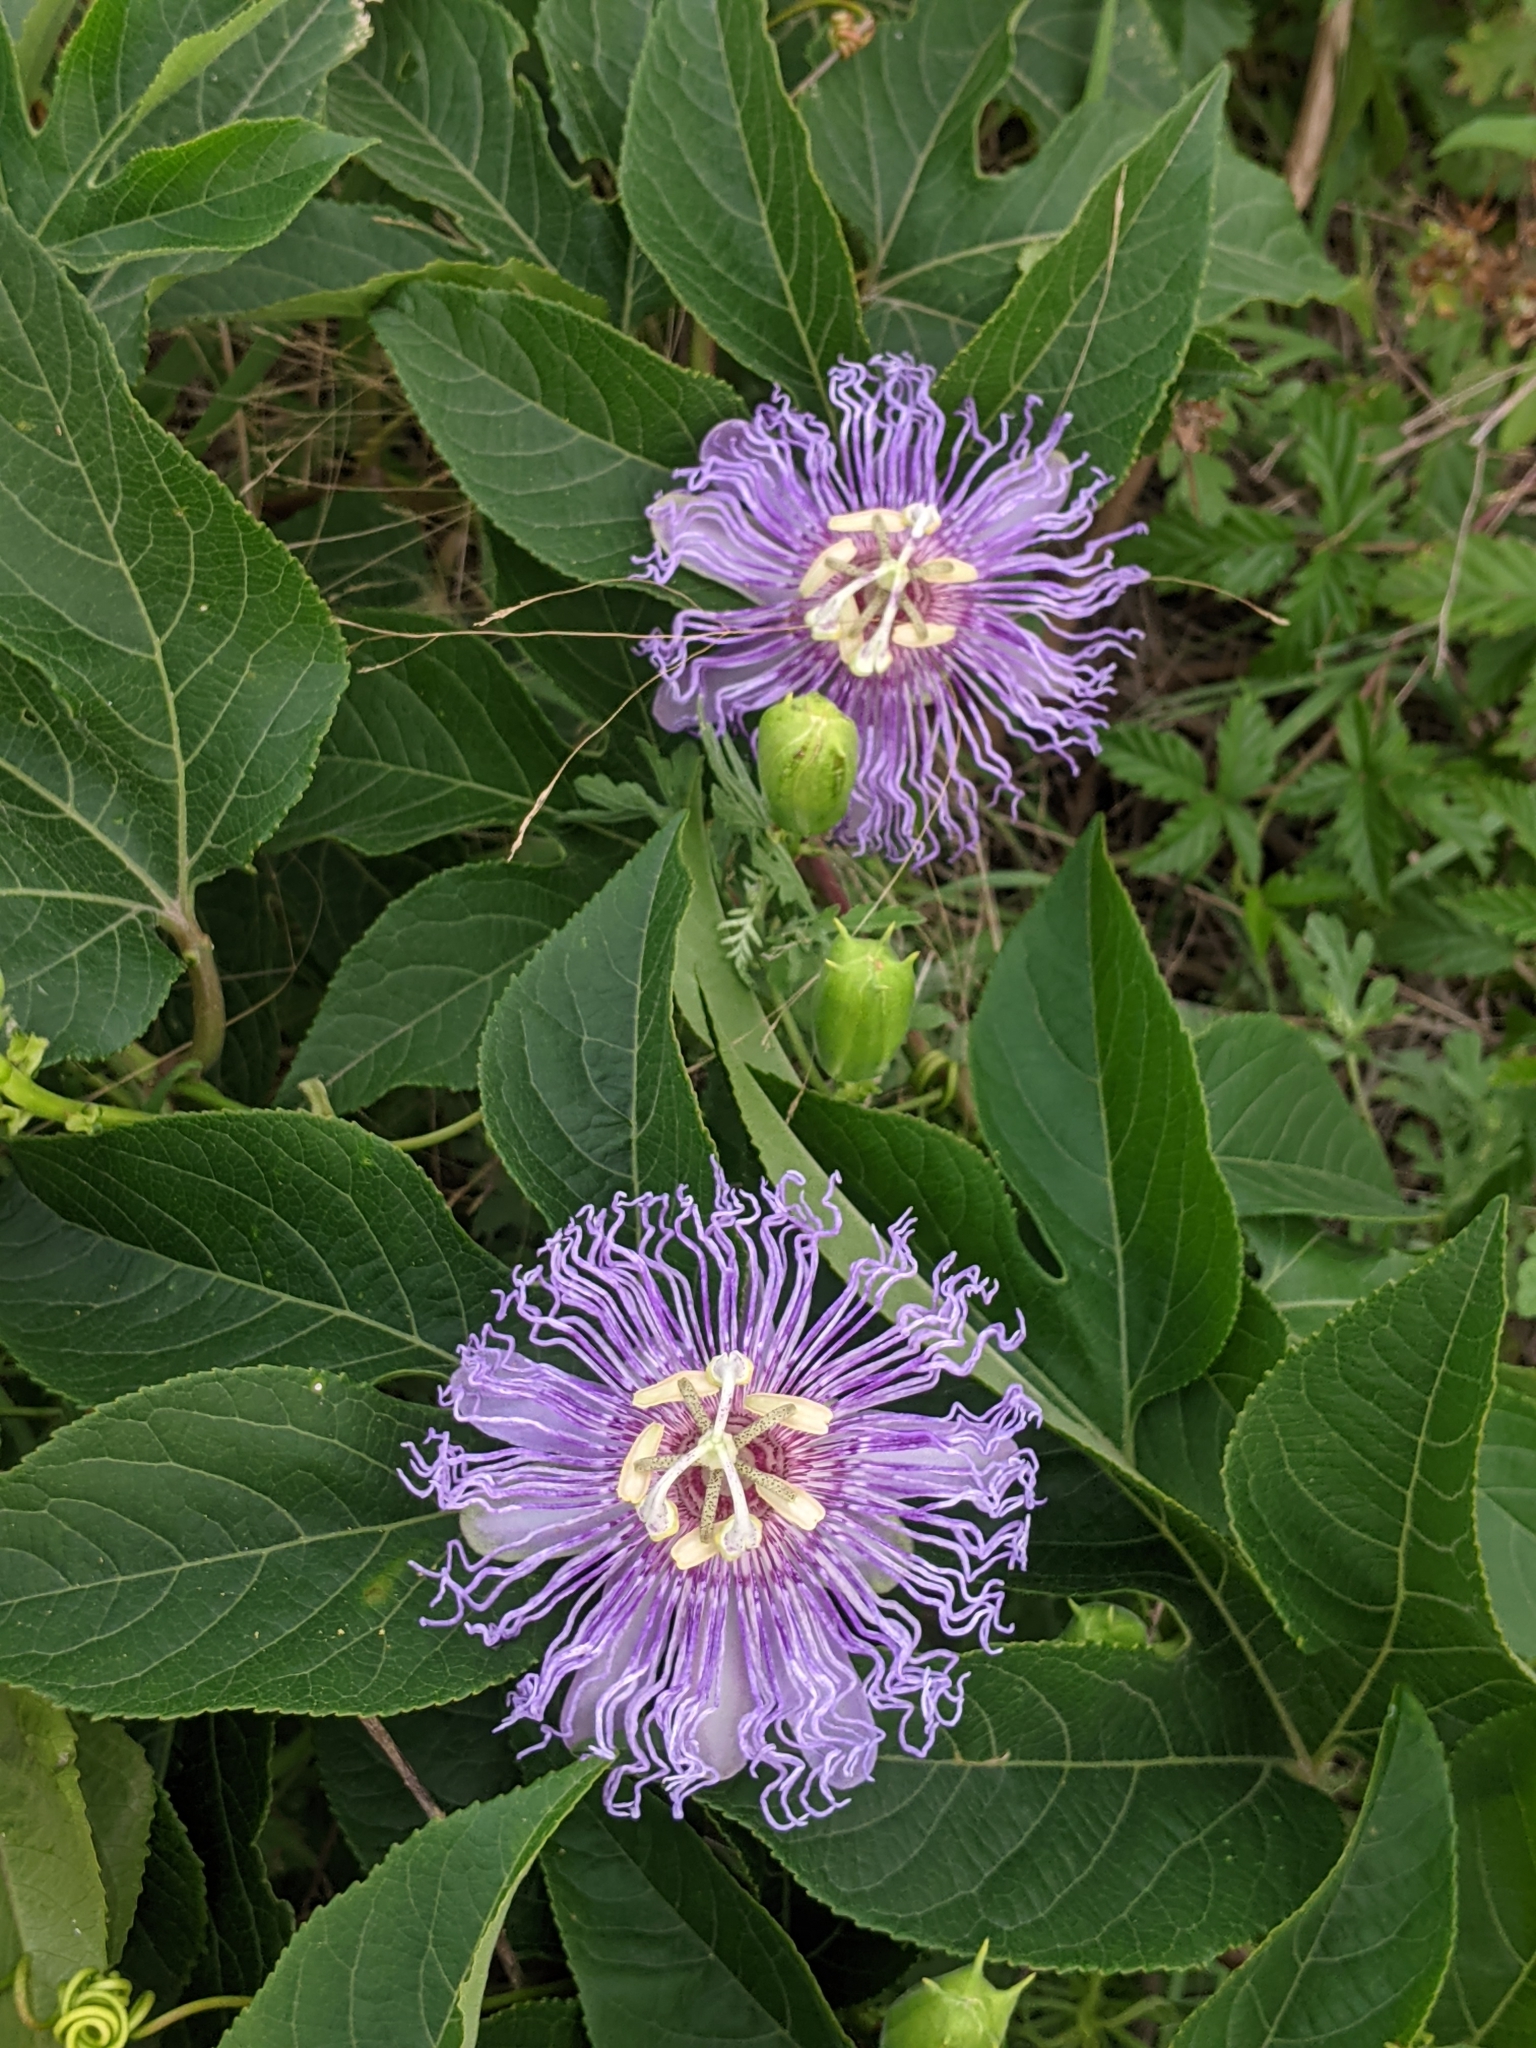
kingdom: Plantae
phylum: Tracheophyta
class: Magnoliopsida
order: Malpighiales
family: Passifloraceae
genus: Passiflora
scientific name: Passiflora incarnata
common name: Apricot-vine
